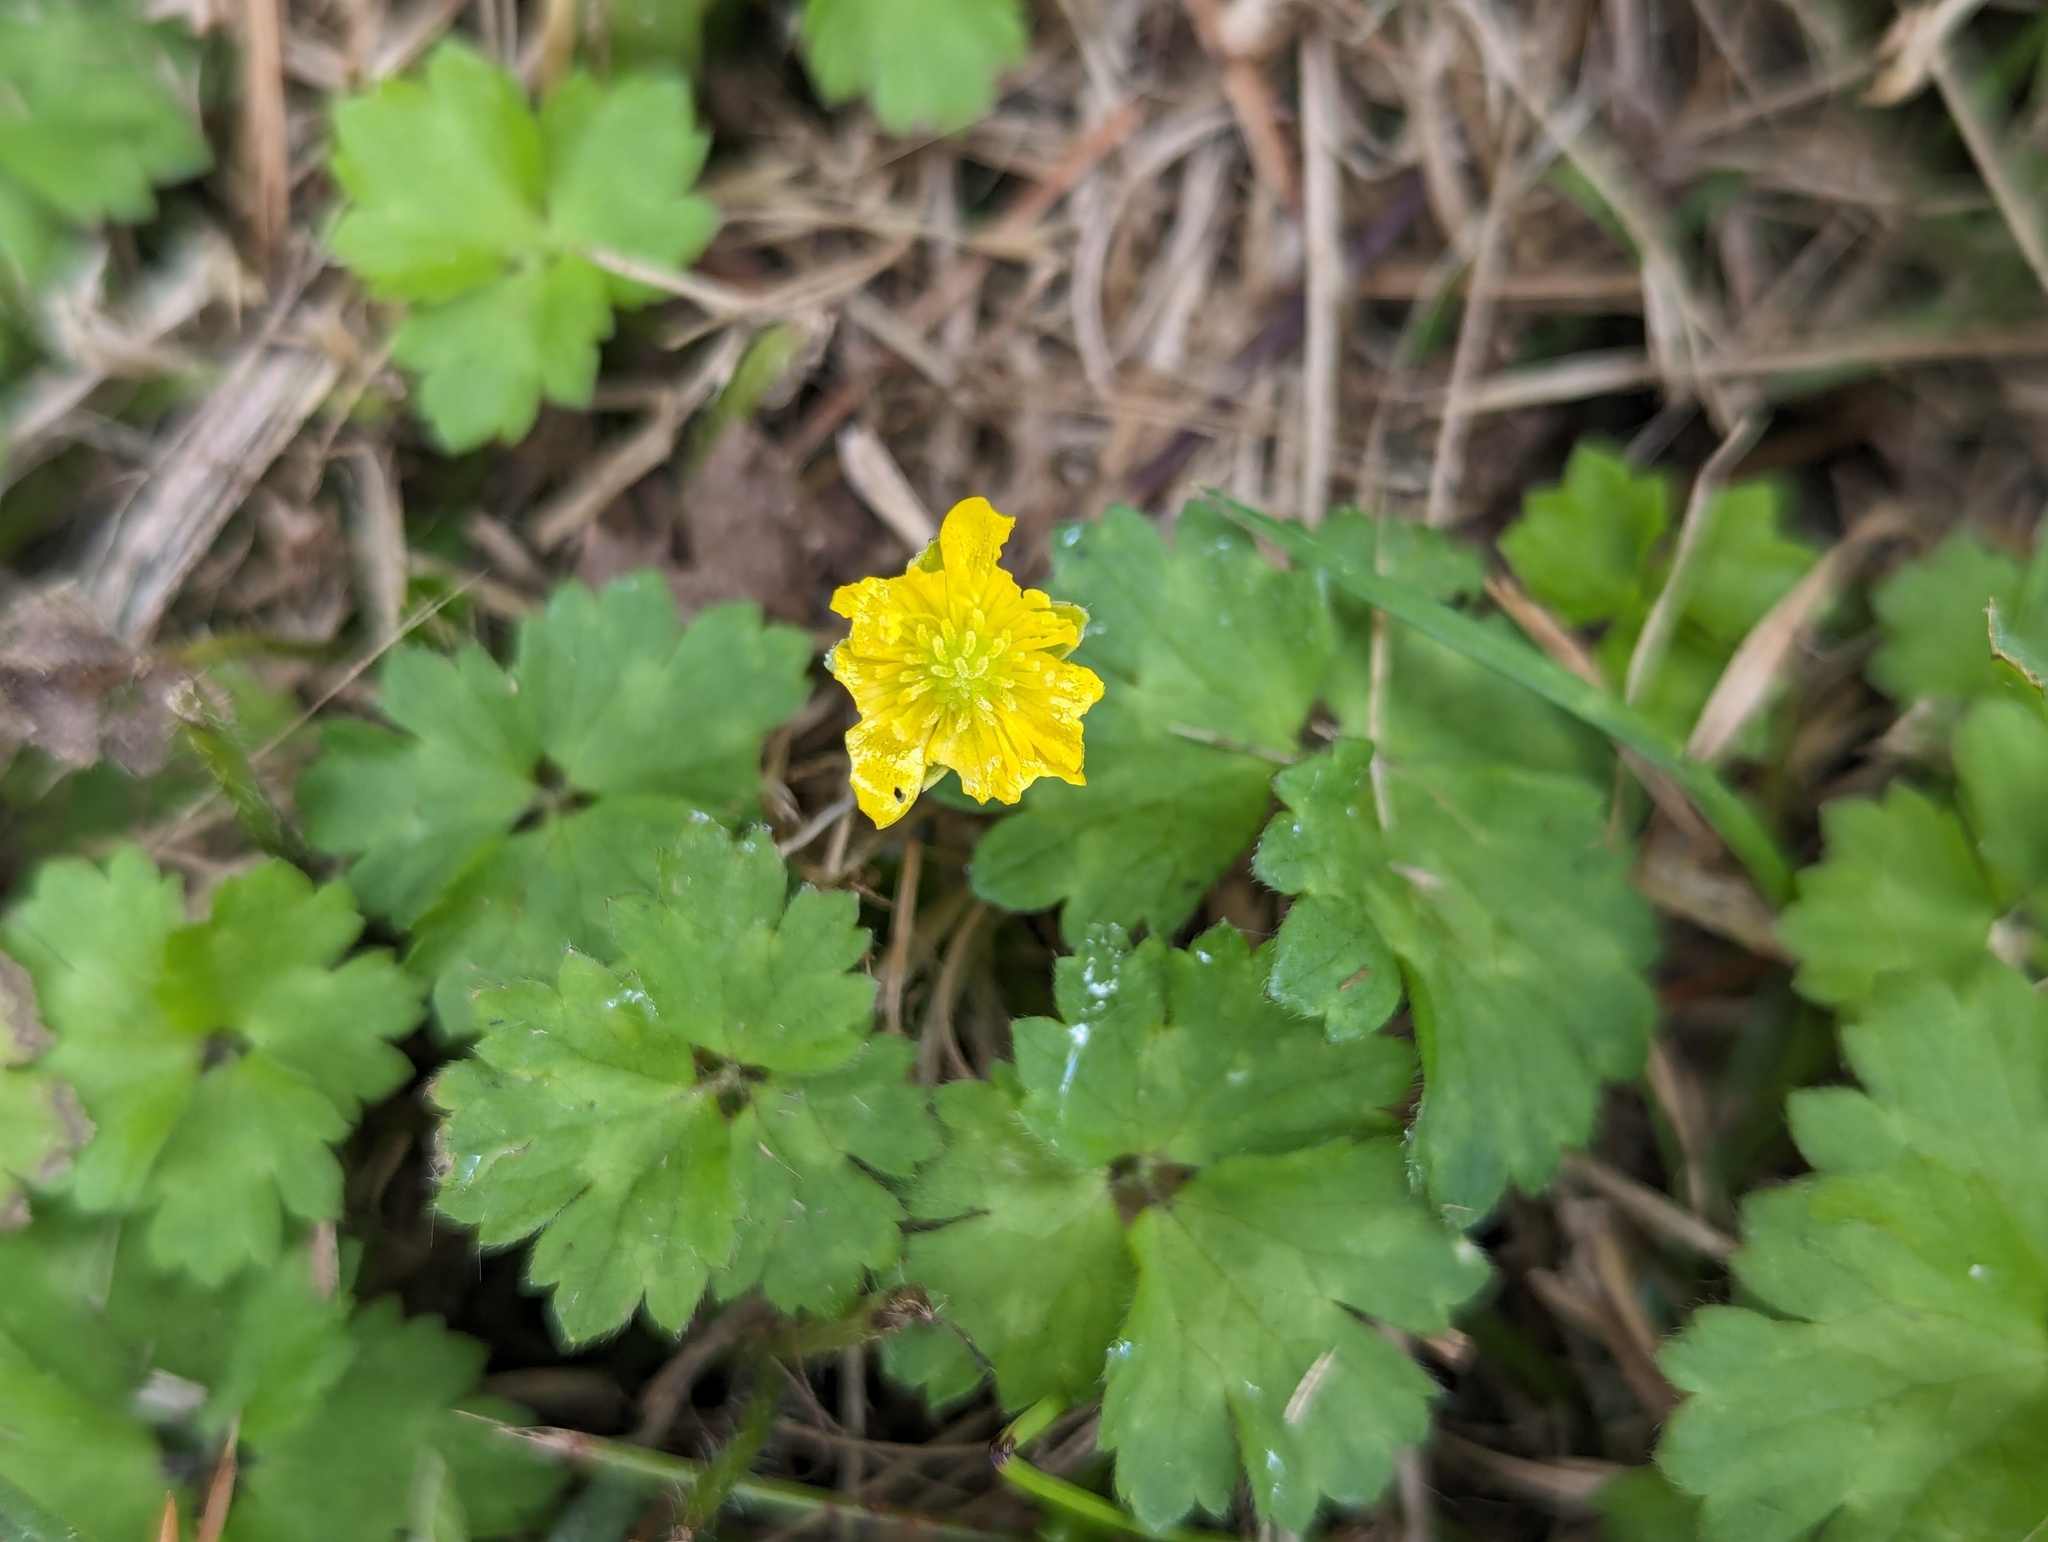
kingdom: Plantae
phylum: Tracheophyta
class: Magnoliopsida
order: Ranunculales
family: Ranunculaceae
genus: Ranunculus
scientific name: Ranunculus repens
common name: Creeping buttercup
